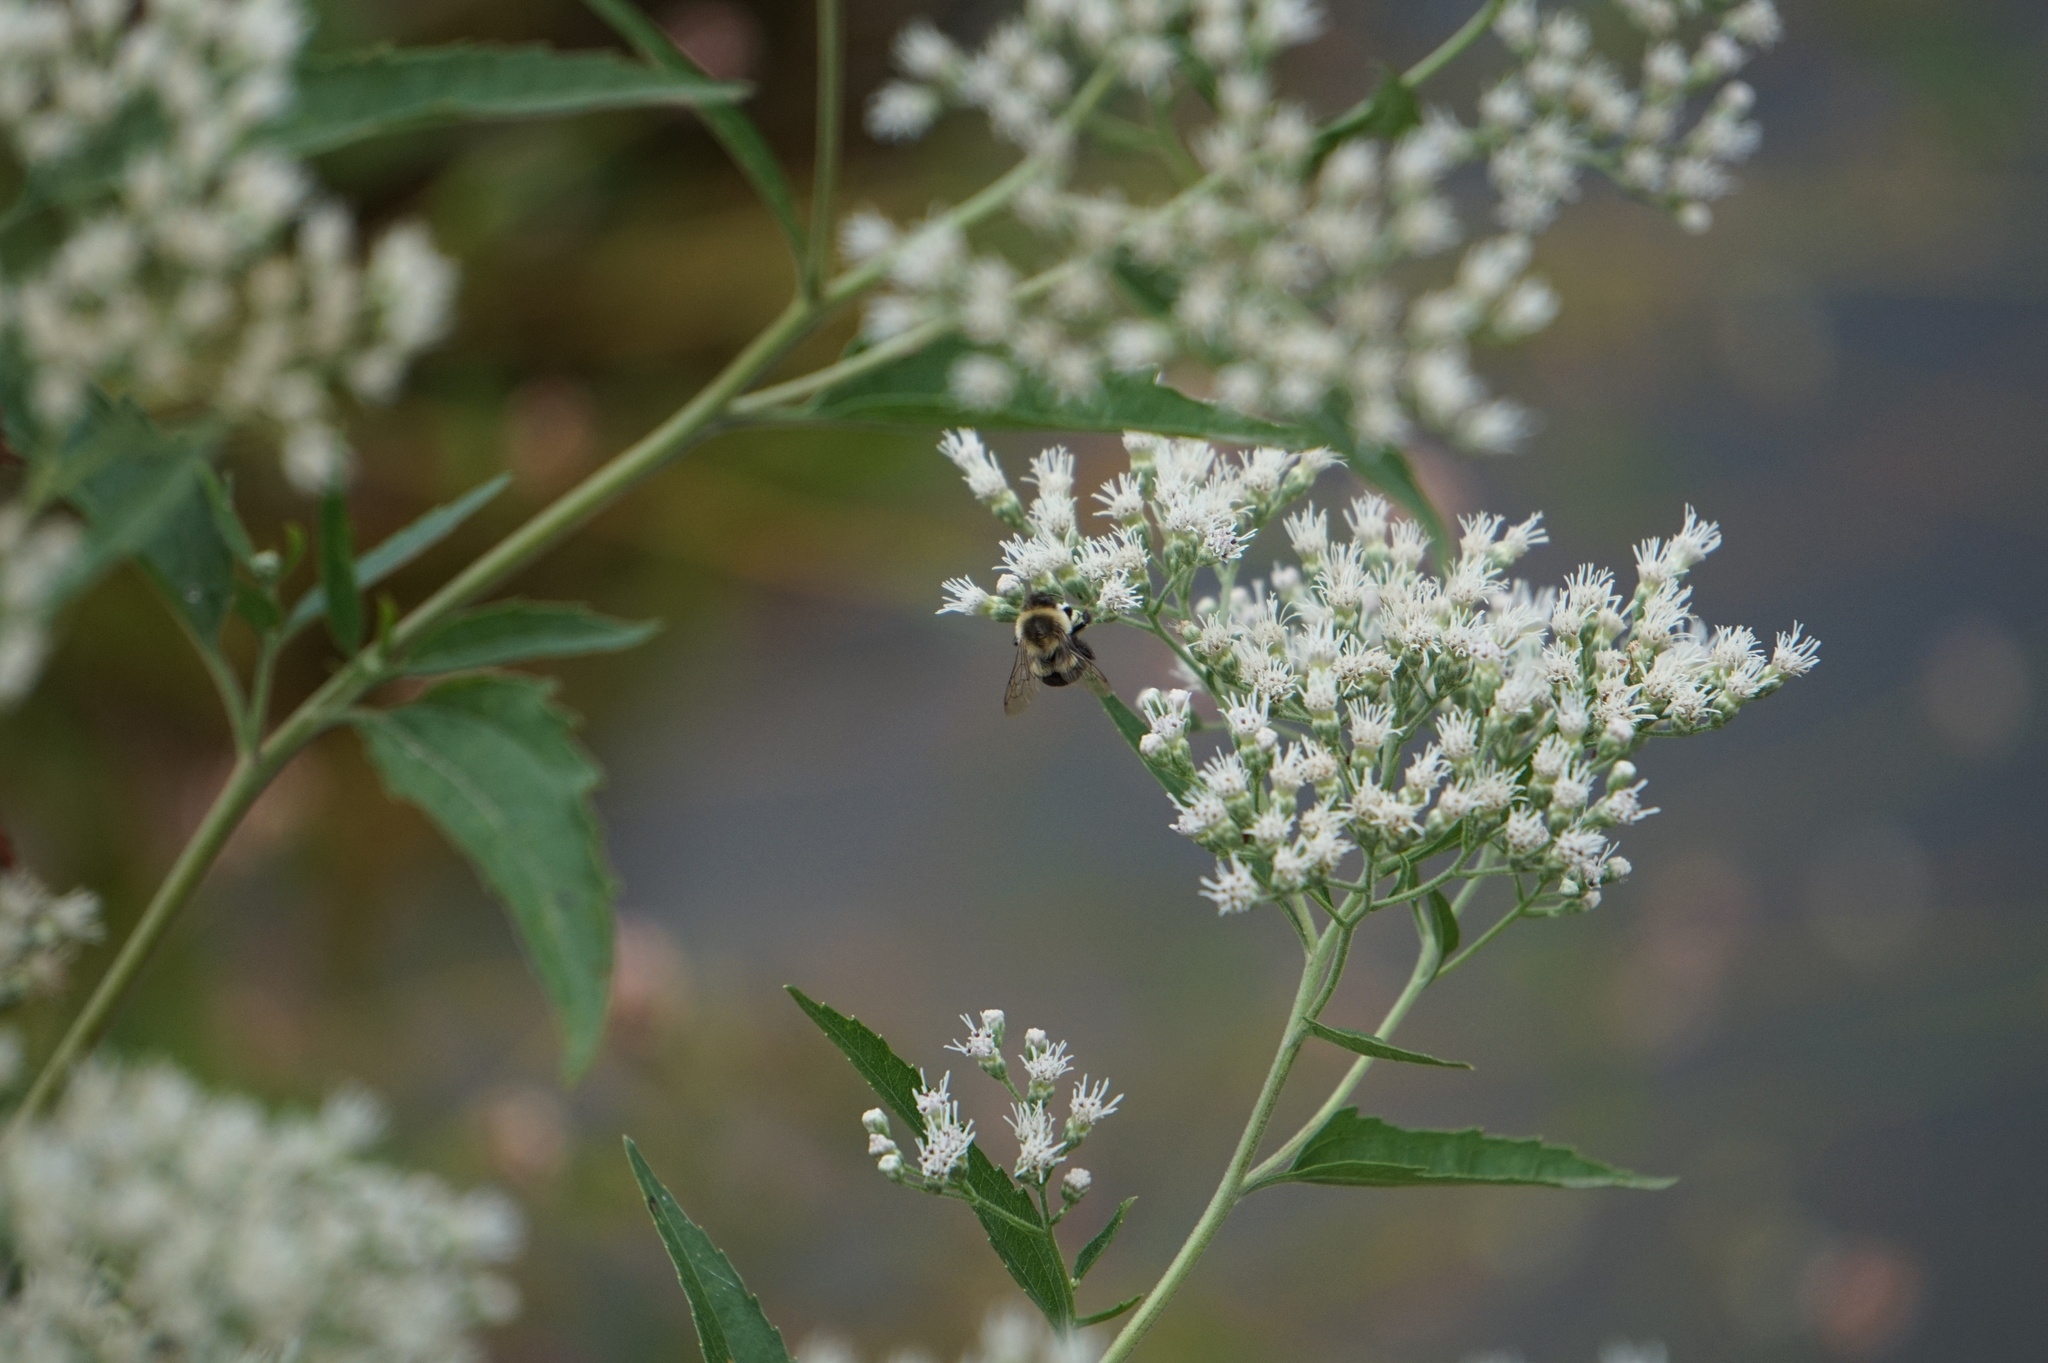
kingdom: Animalia
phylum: Arthropoda
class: Insecta
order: Hymenoptera
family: Apidae
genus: Bombus
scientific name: Bombus impatiens
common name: Common eastern bumble bee
